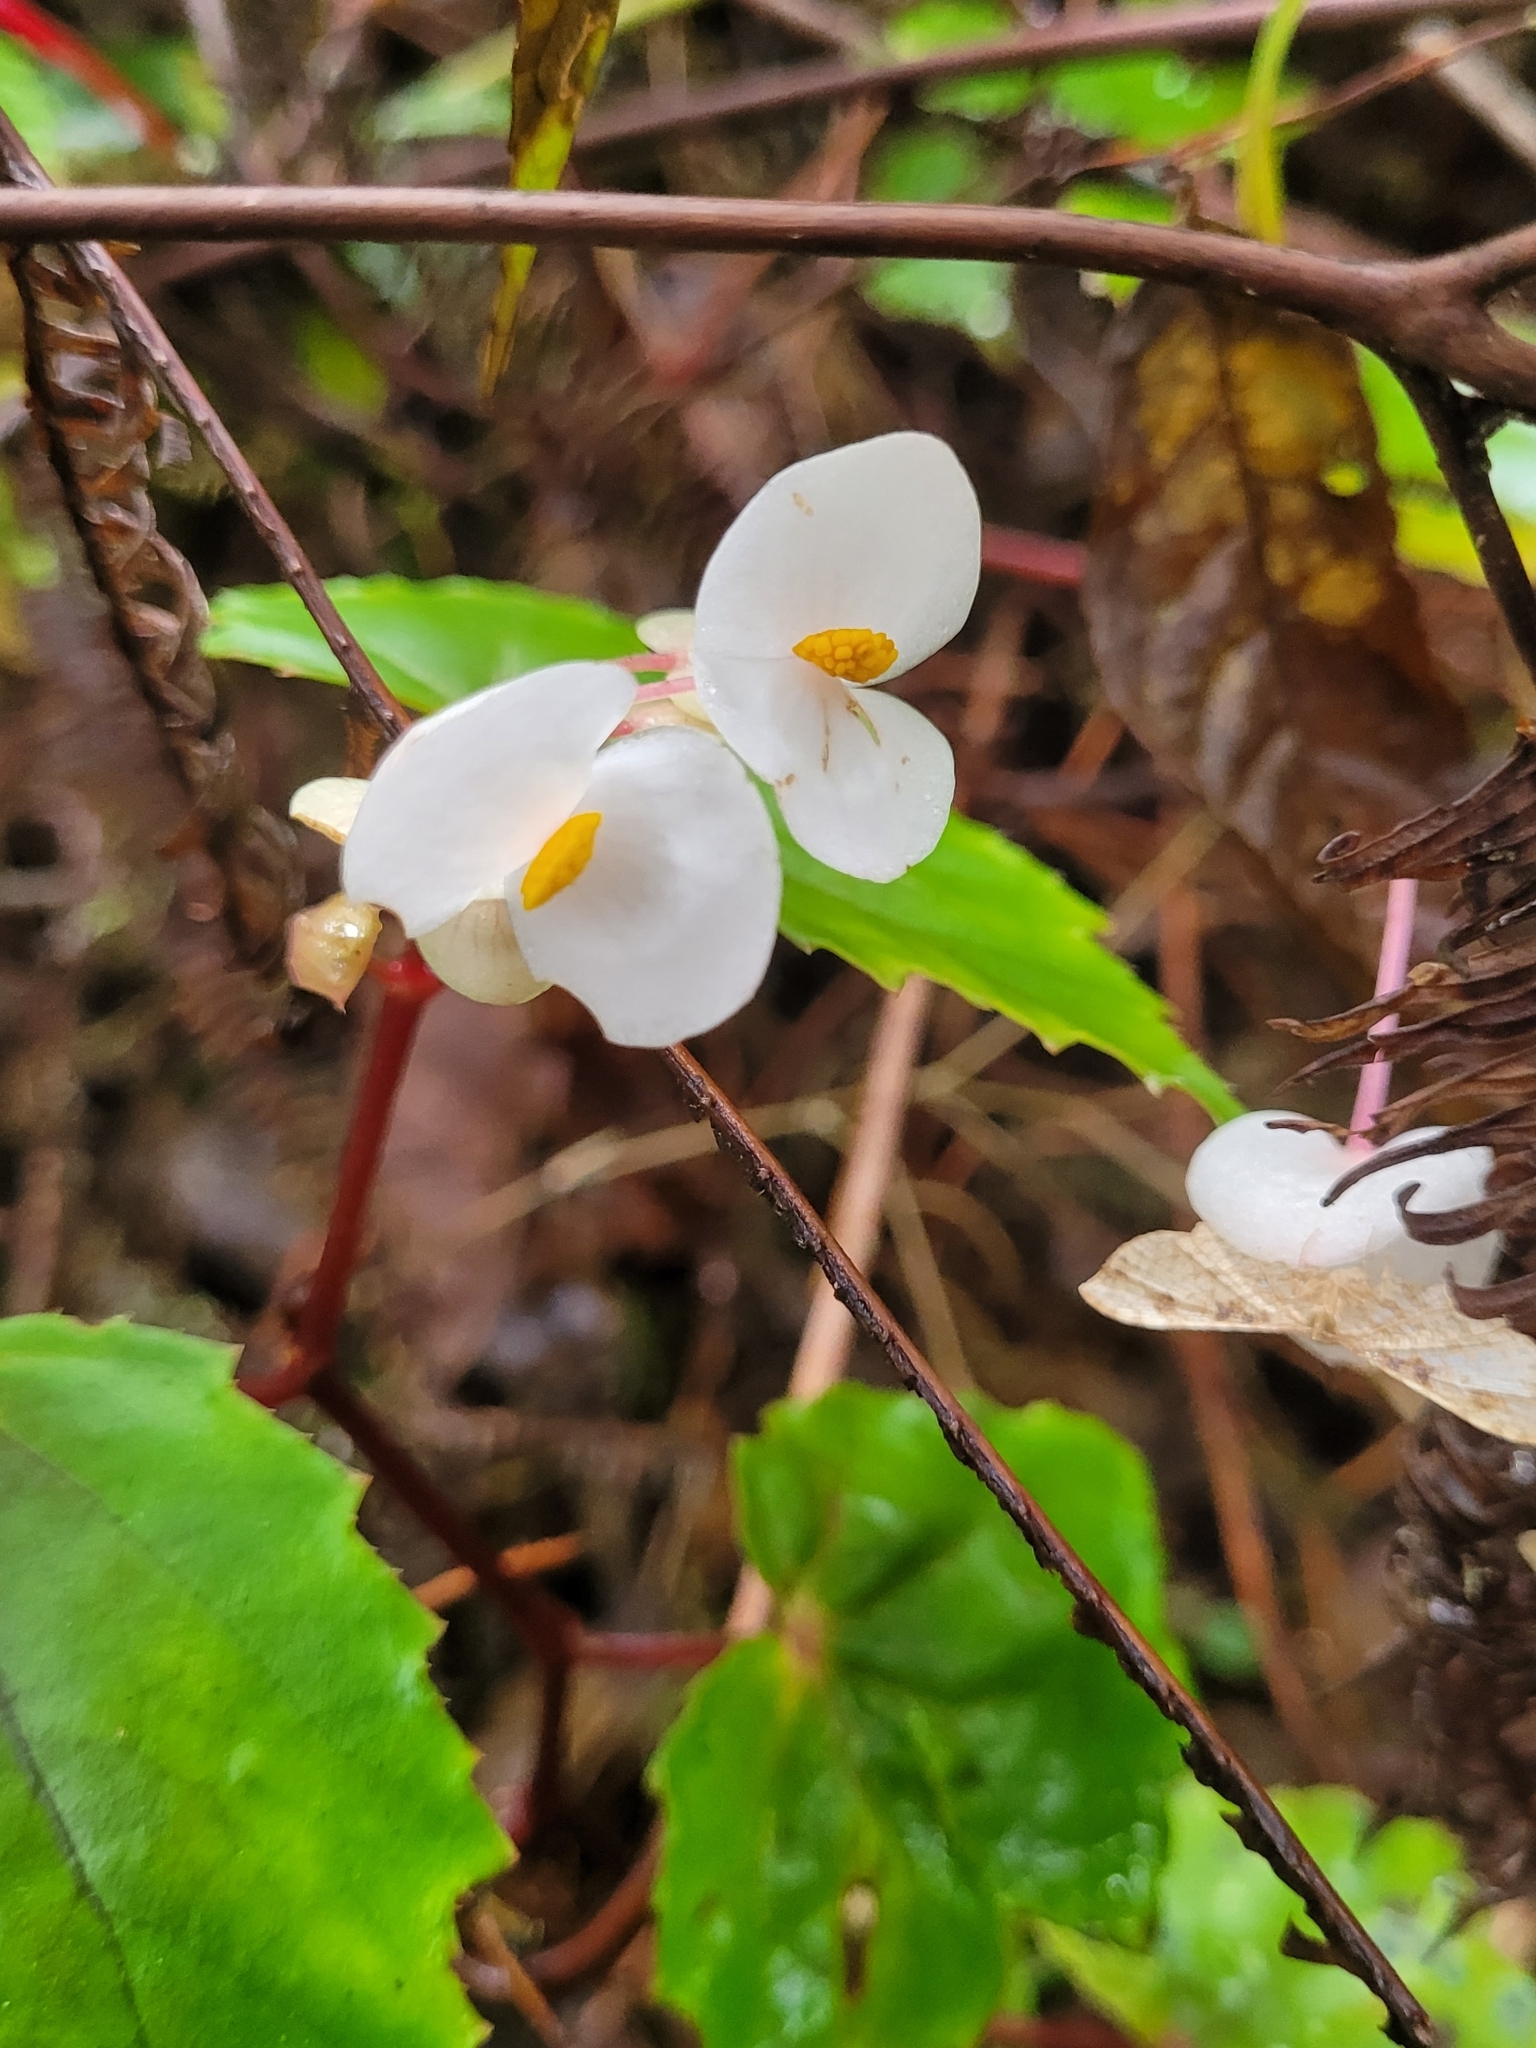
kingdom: Plantae
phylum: Tracheophyta
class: Magnoliopsida
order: Cucurbitales
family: Begoniaceae
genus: Begonia
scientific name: Begonia torajana
